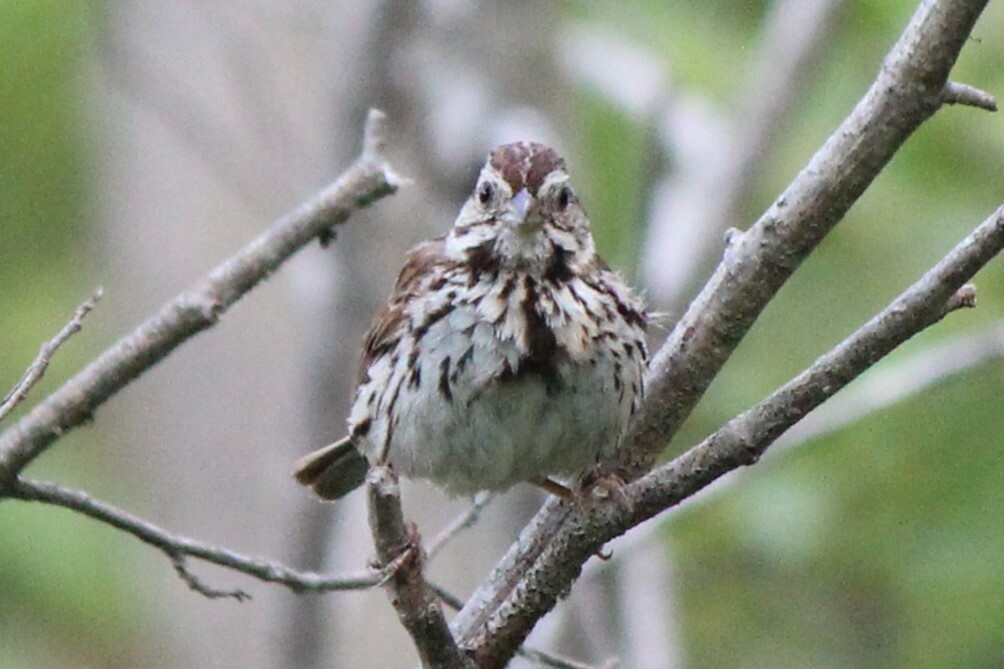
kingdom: Animalia
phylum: Chordata
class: Aves
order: Passeriformes
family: Passerellidae
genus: Melospiza
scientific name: Melospiza melodia
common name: Song sparrow
